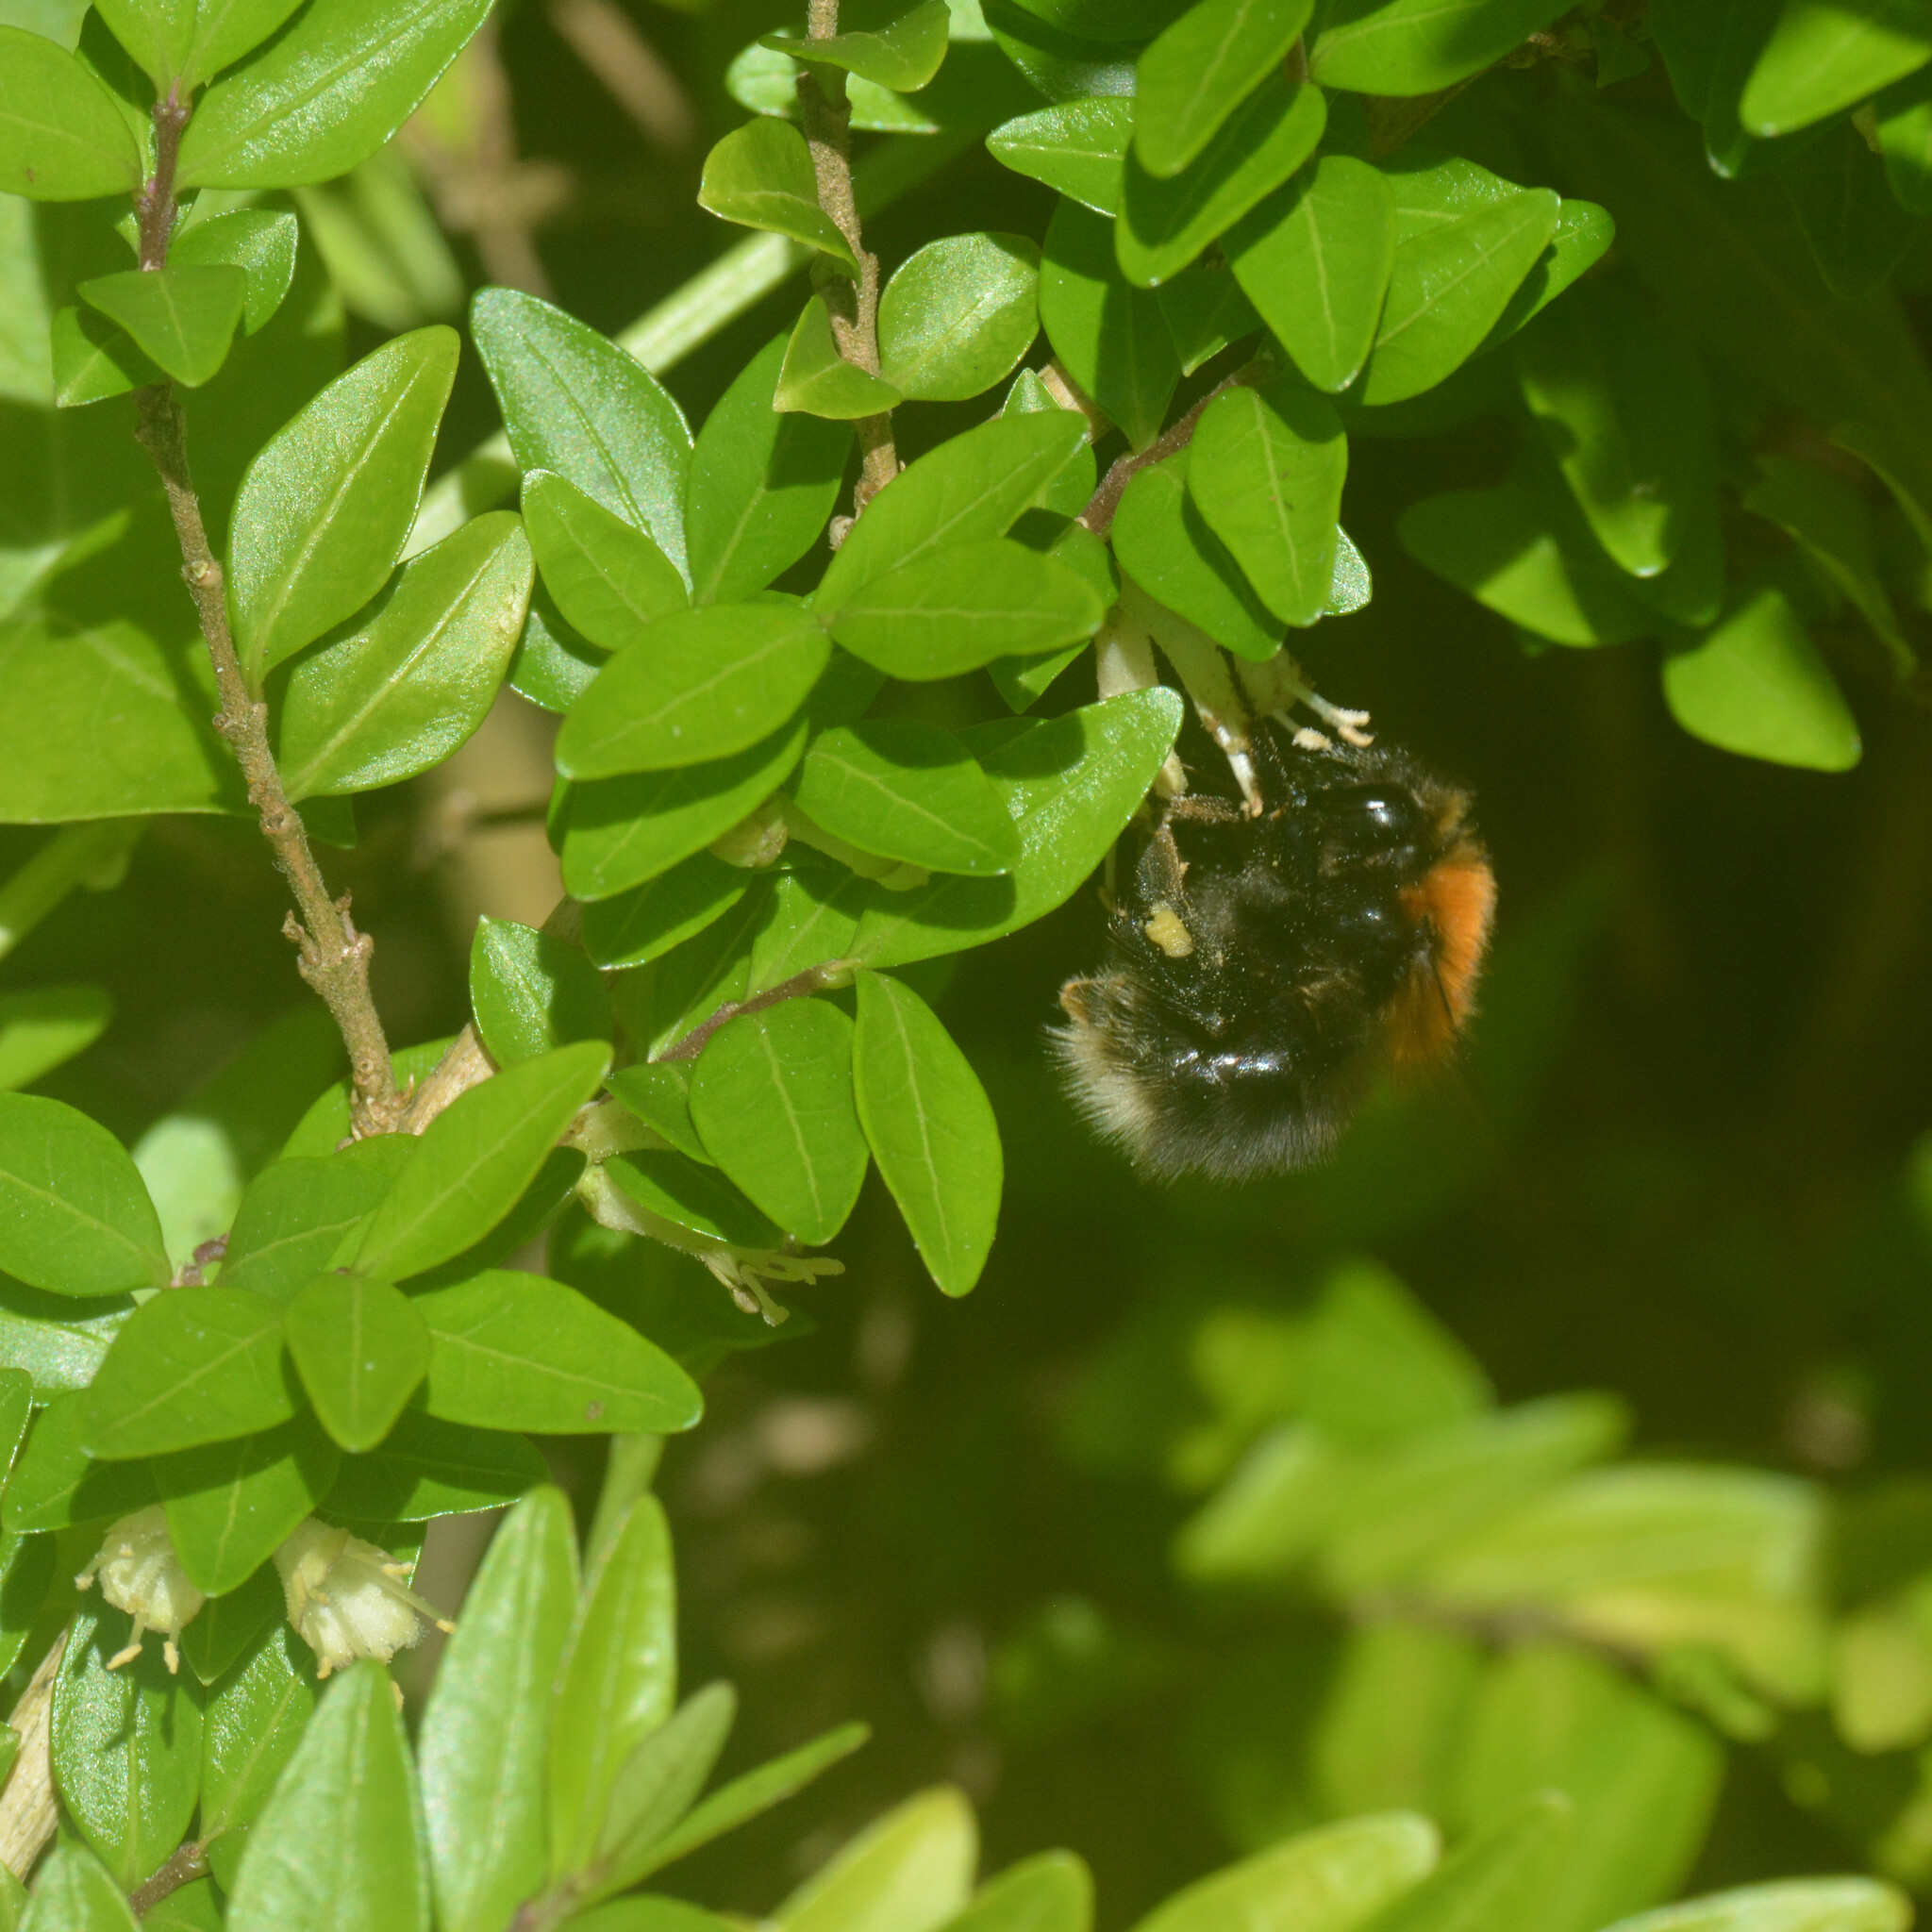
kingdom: Animalia
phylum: Arthropoda
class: Insecta
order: Hymenoptera
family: Apidae
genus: Bombus
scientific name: Bombus hypnorum
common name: New garden bumblebee
